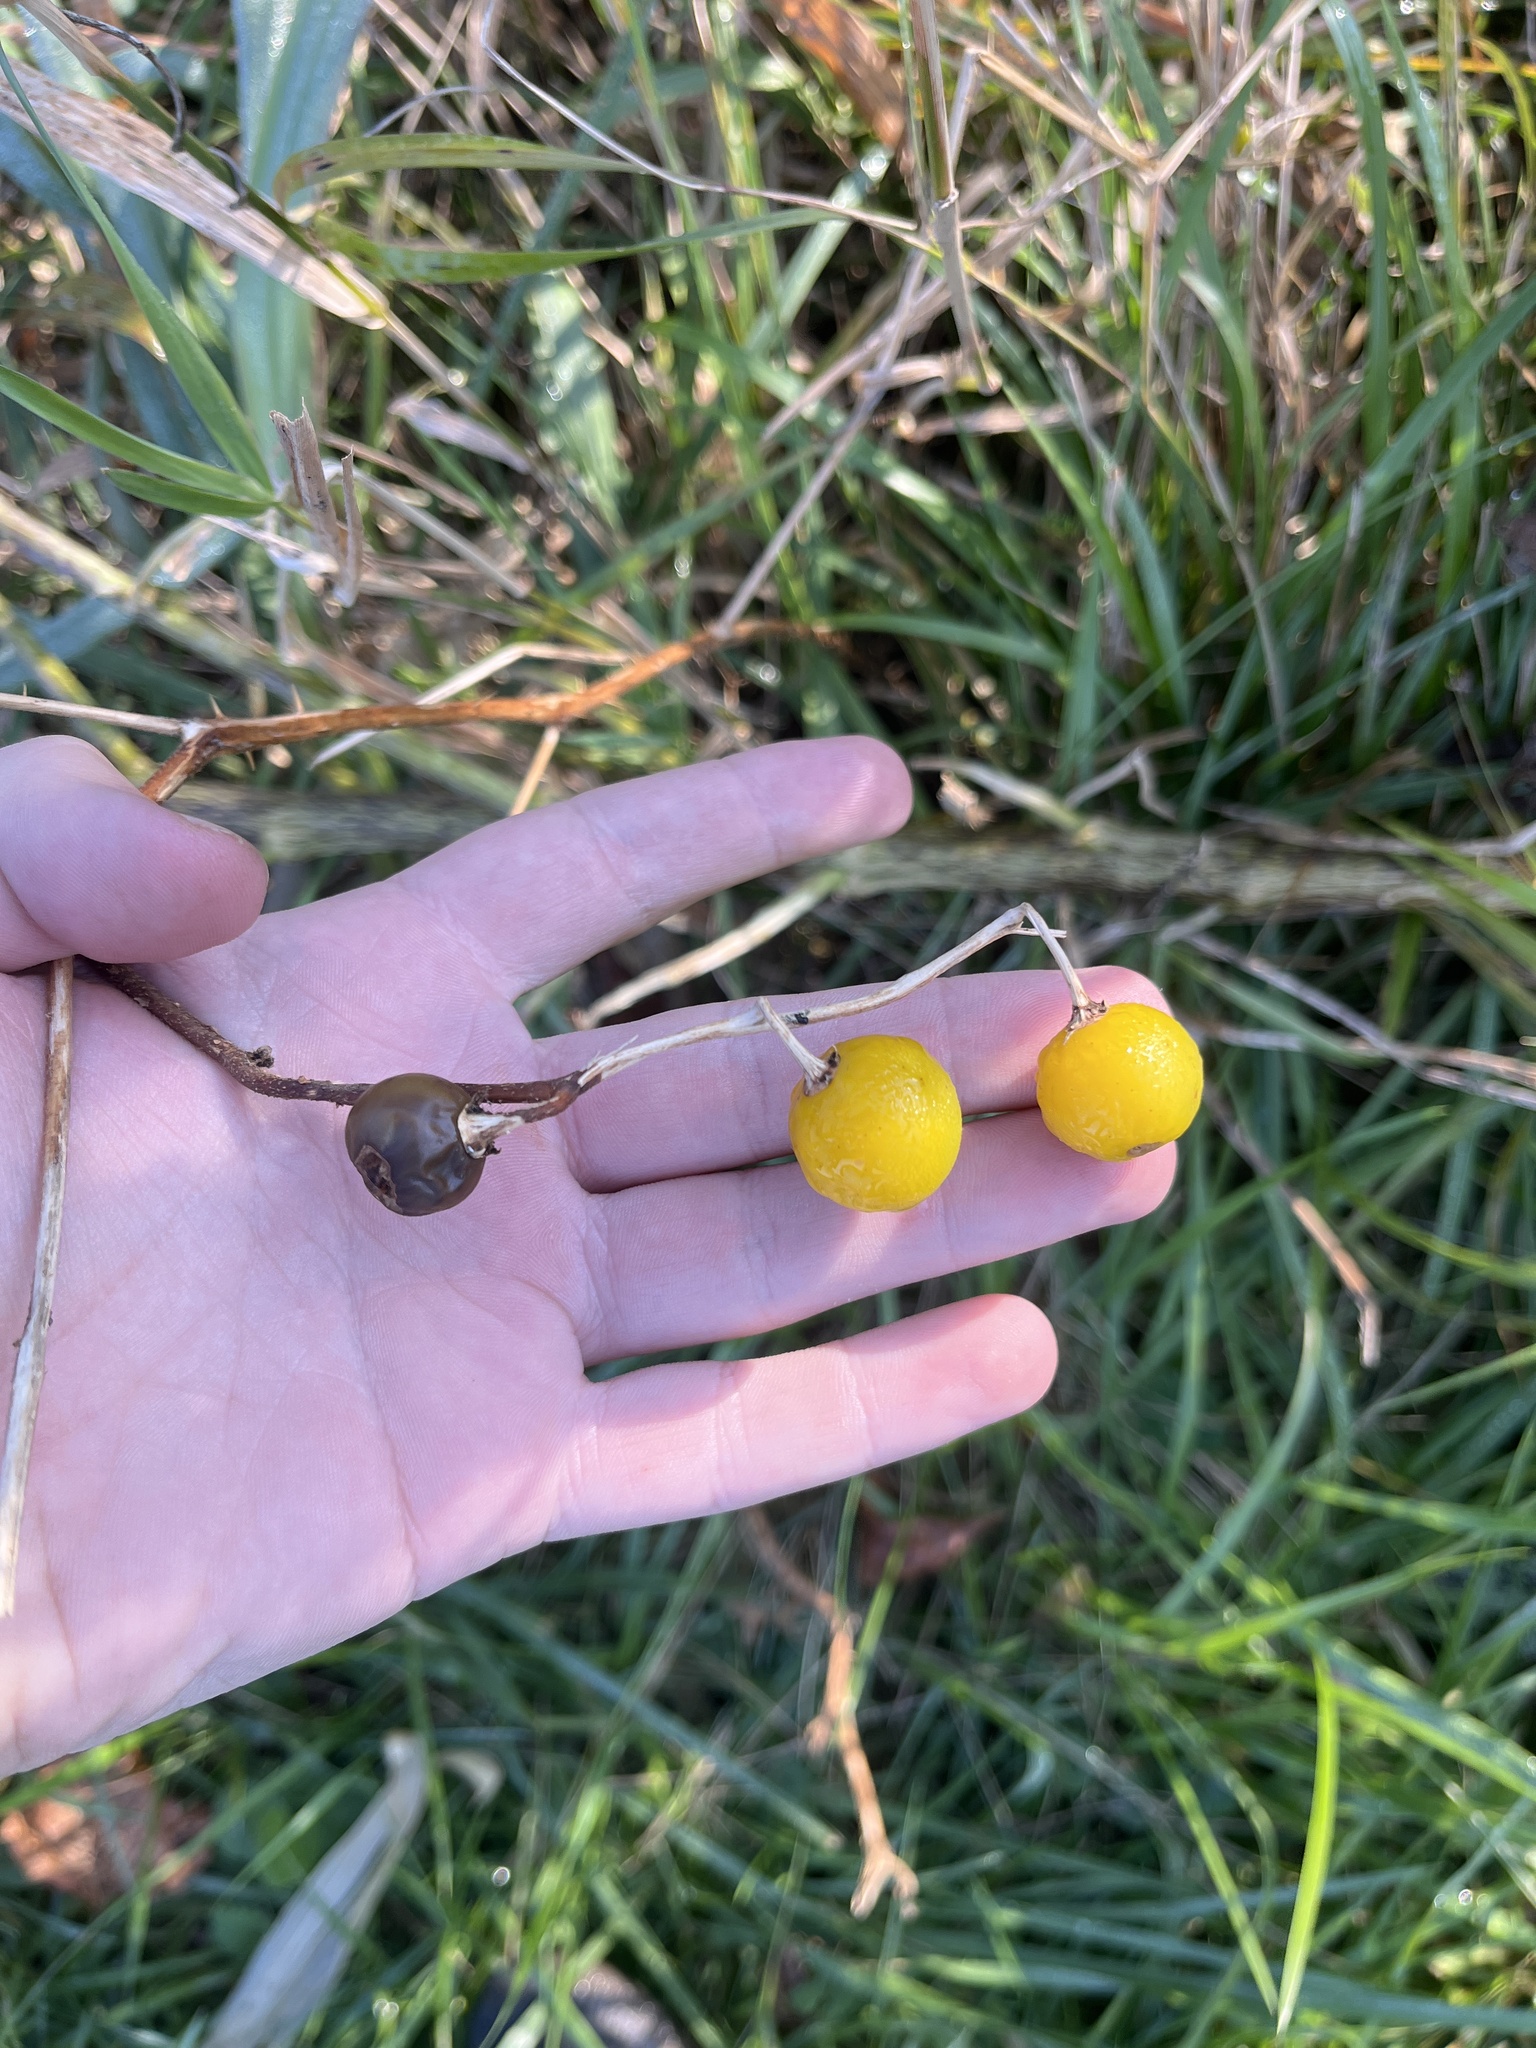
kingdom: Plantae
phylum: Tracheophyta
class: Magnoliopsida
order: Solanales
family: Solanaceae
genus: Solanum
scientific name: Solanum carolinense
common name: Horse-nettle
